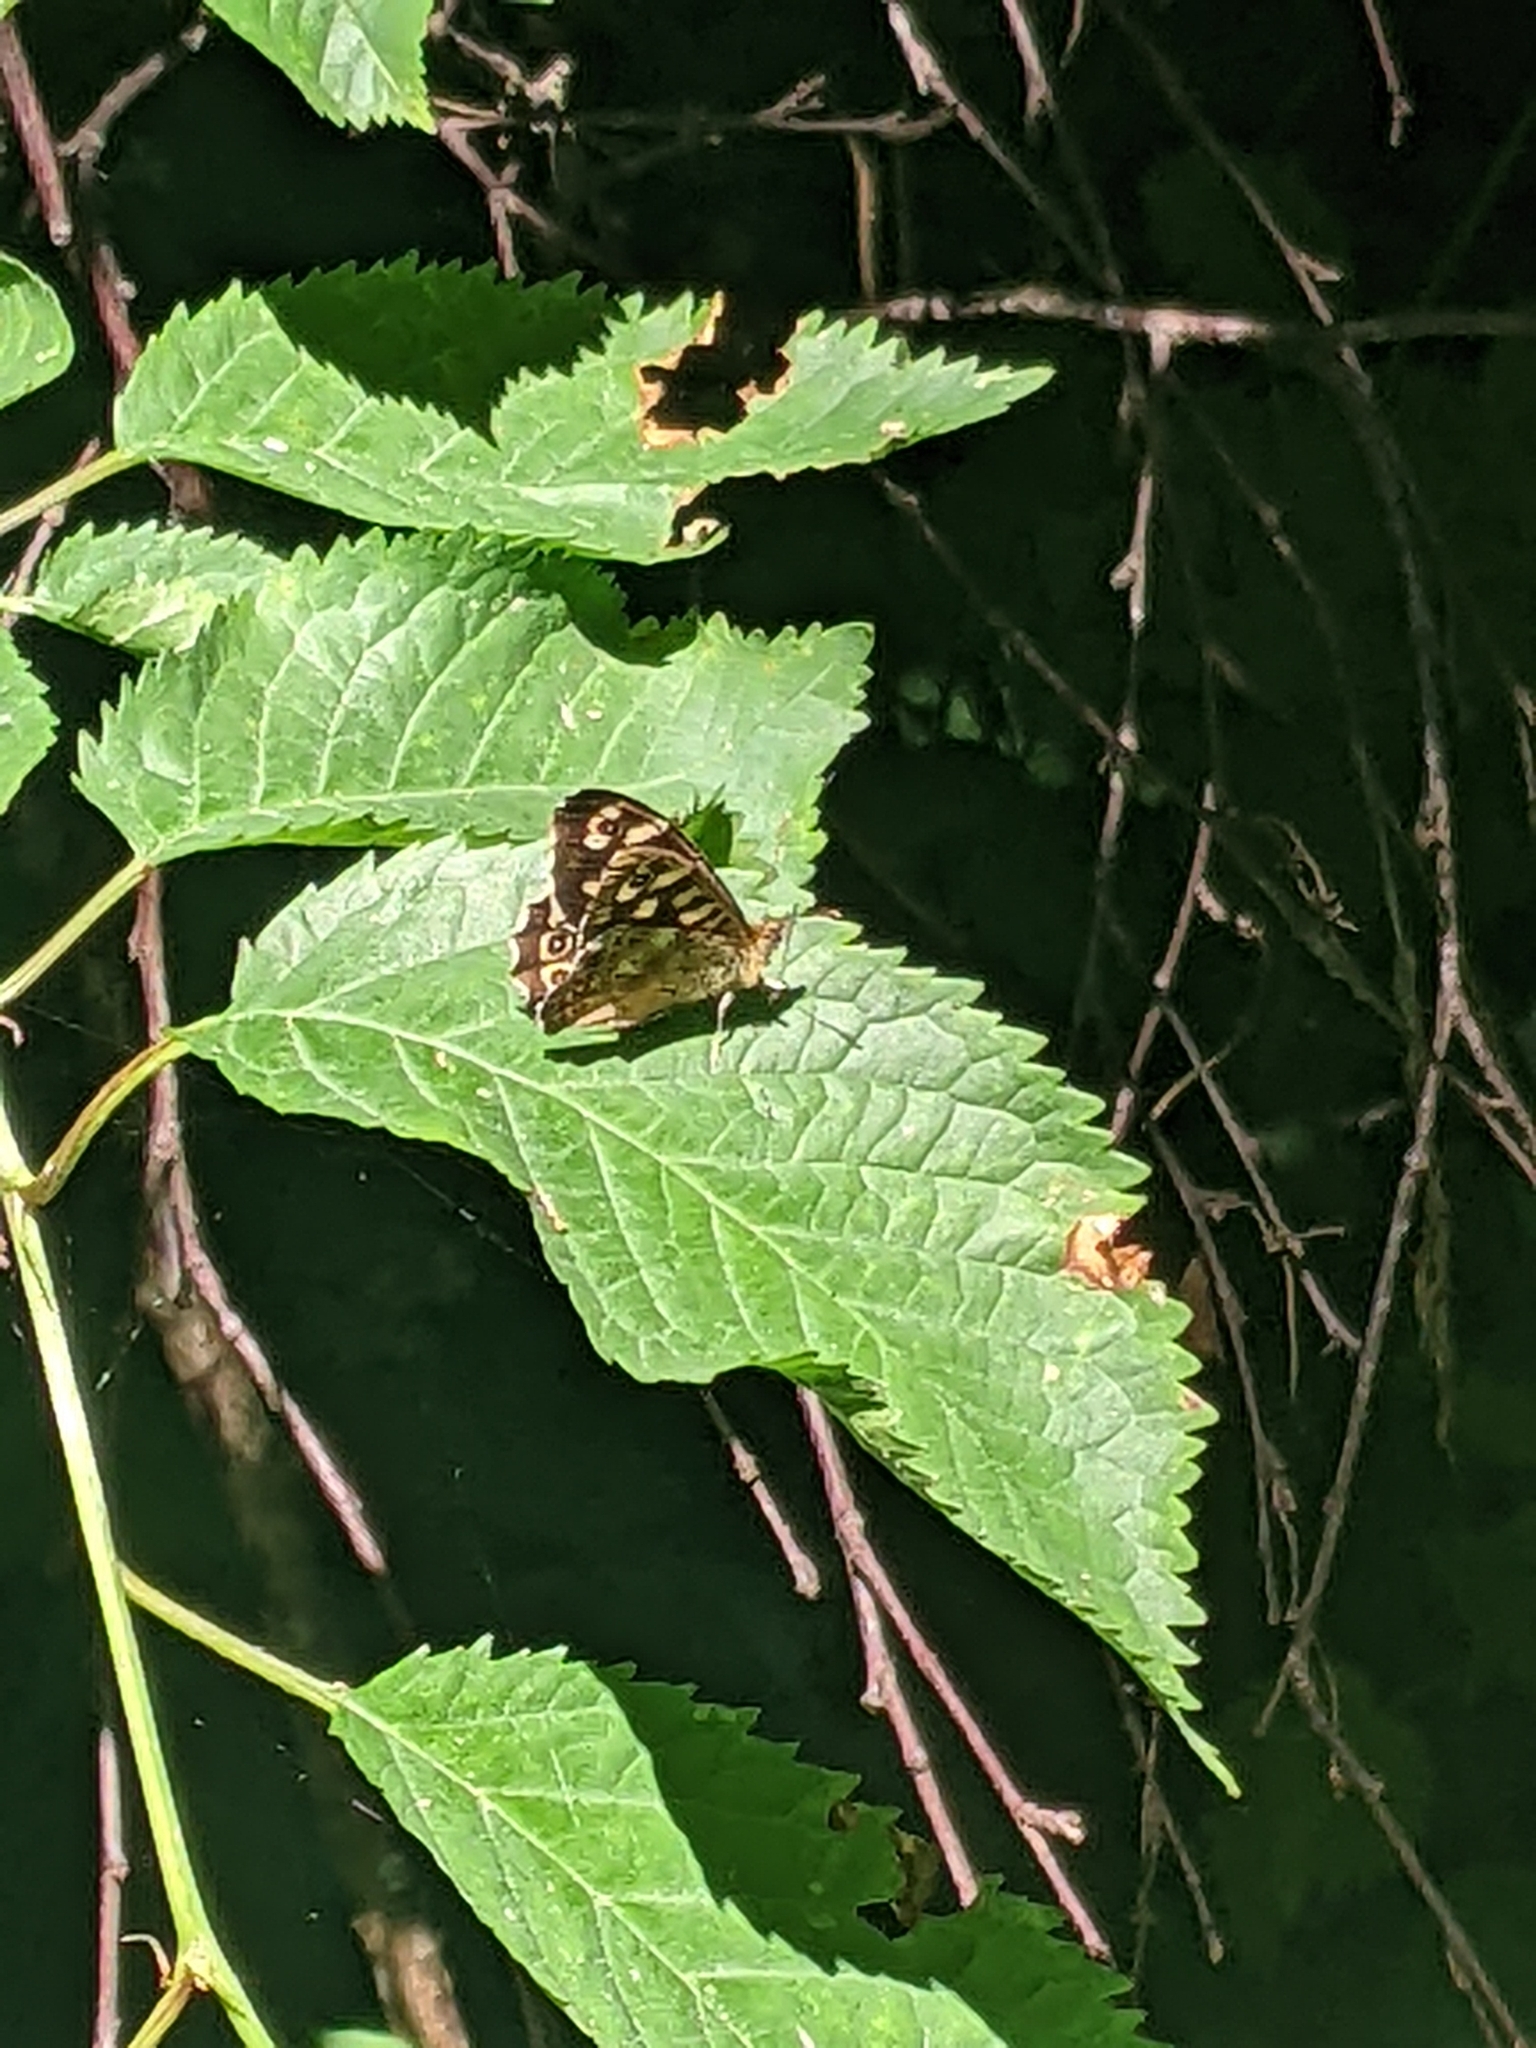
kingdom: Animalia
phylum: Arthropoda
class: Insecta
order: Lepidoptera
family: Nymphalidae
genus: Pararge
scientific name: Pararge aegeria
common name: Speckled wood
